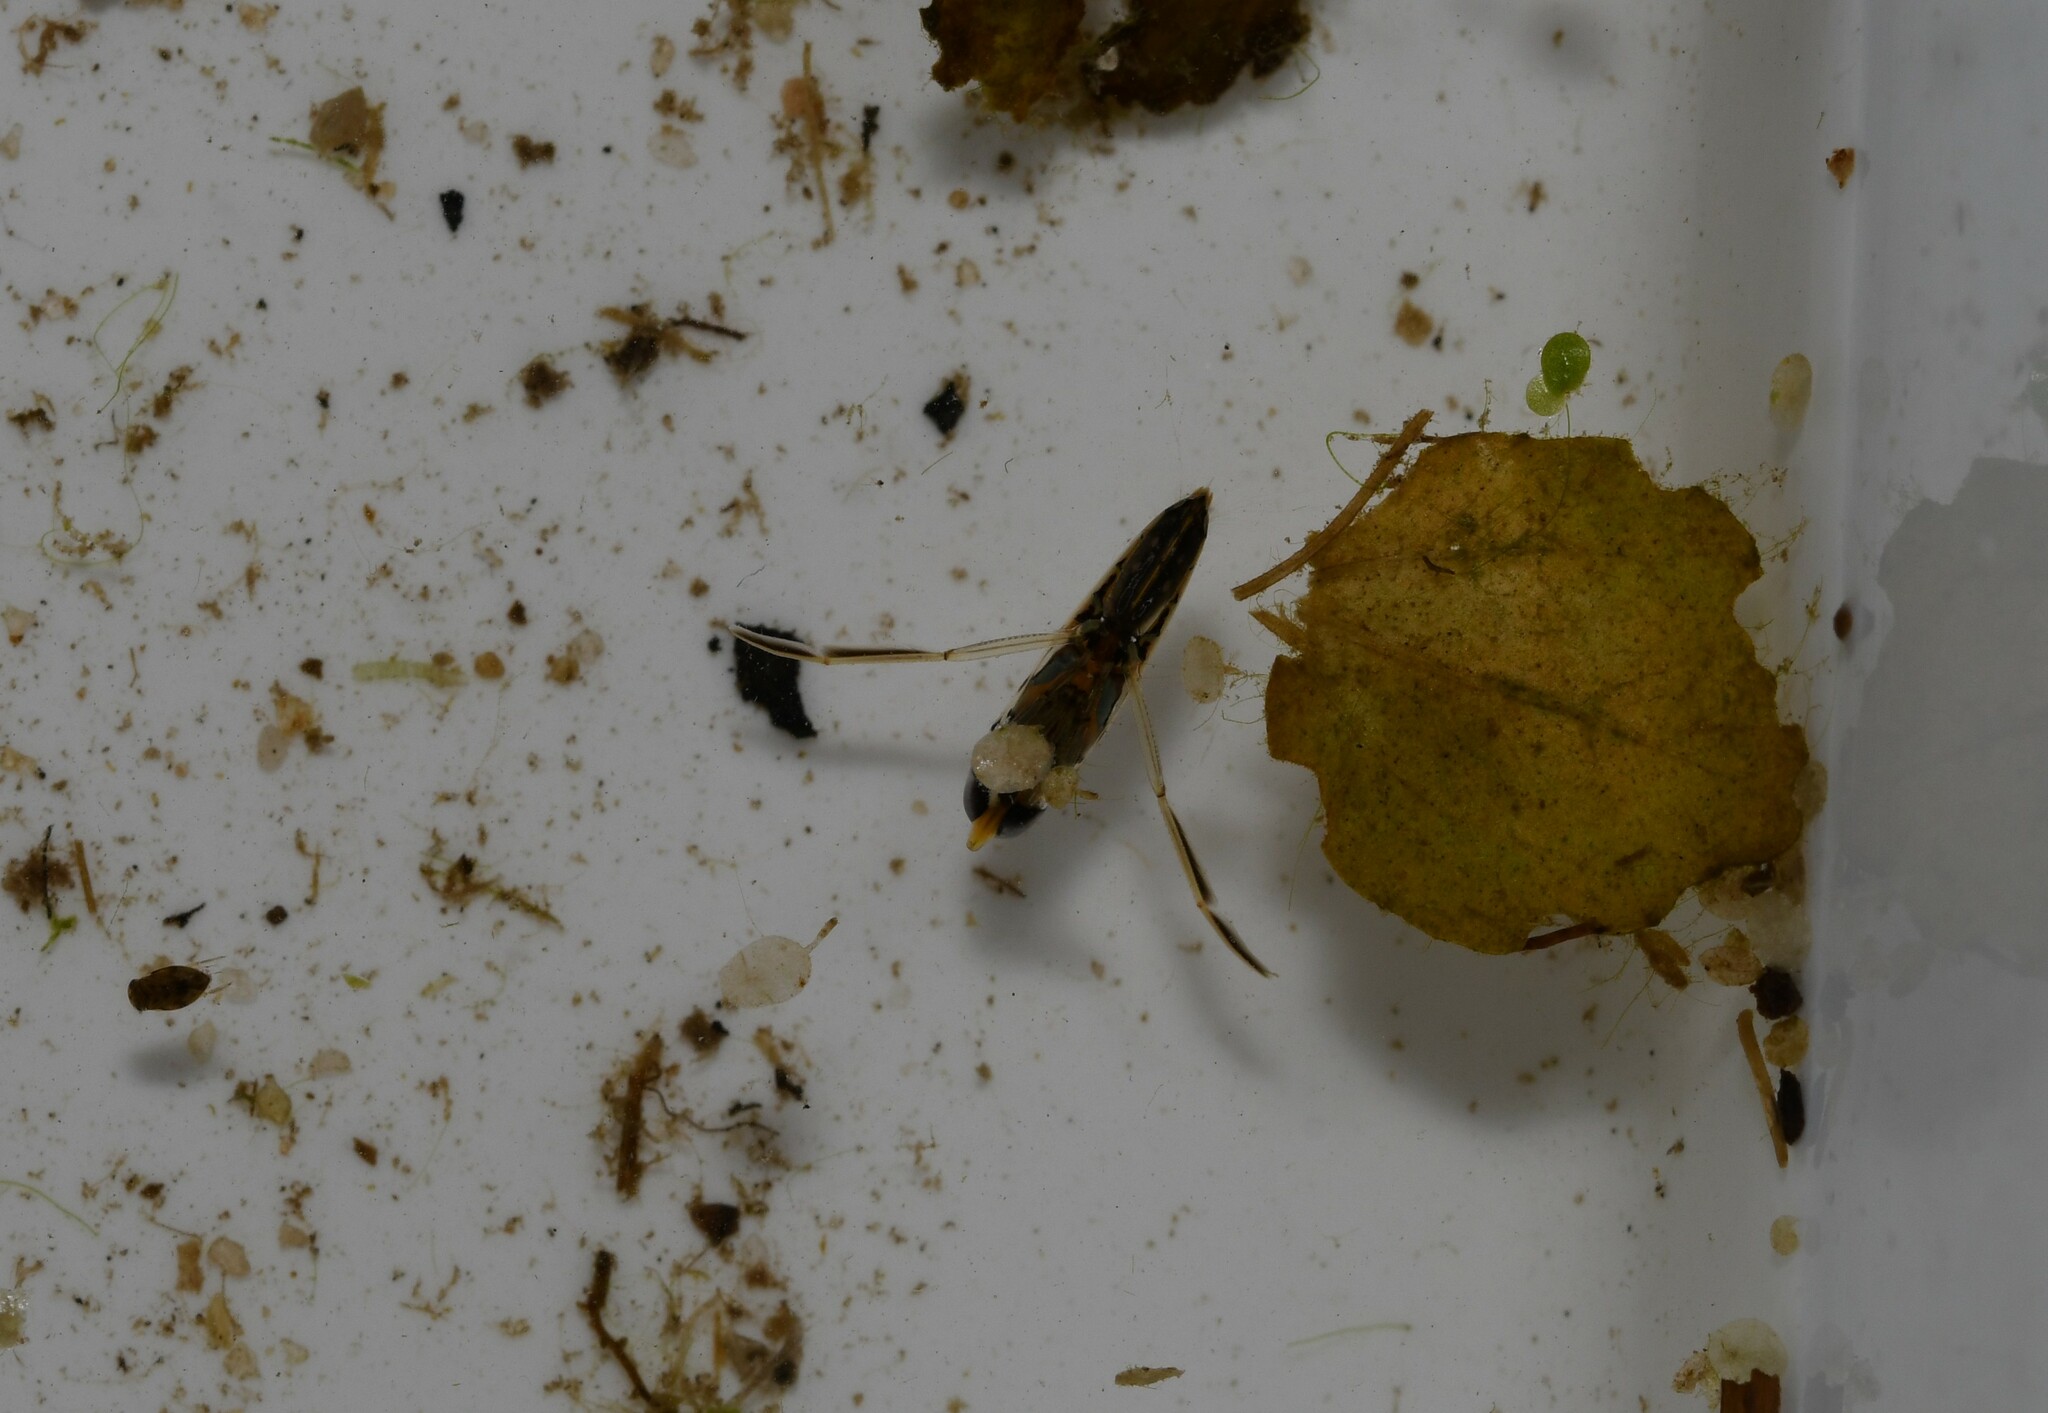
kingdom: Animalia
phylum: Arthropoda
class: Insecta
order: Hemiptera
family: Notonectidae
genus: Anisops
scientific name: Anisops sardeus
